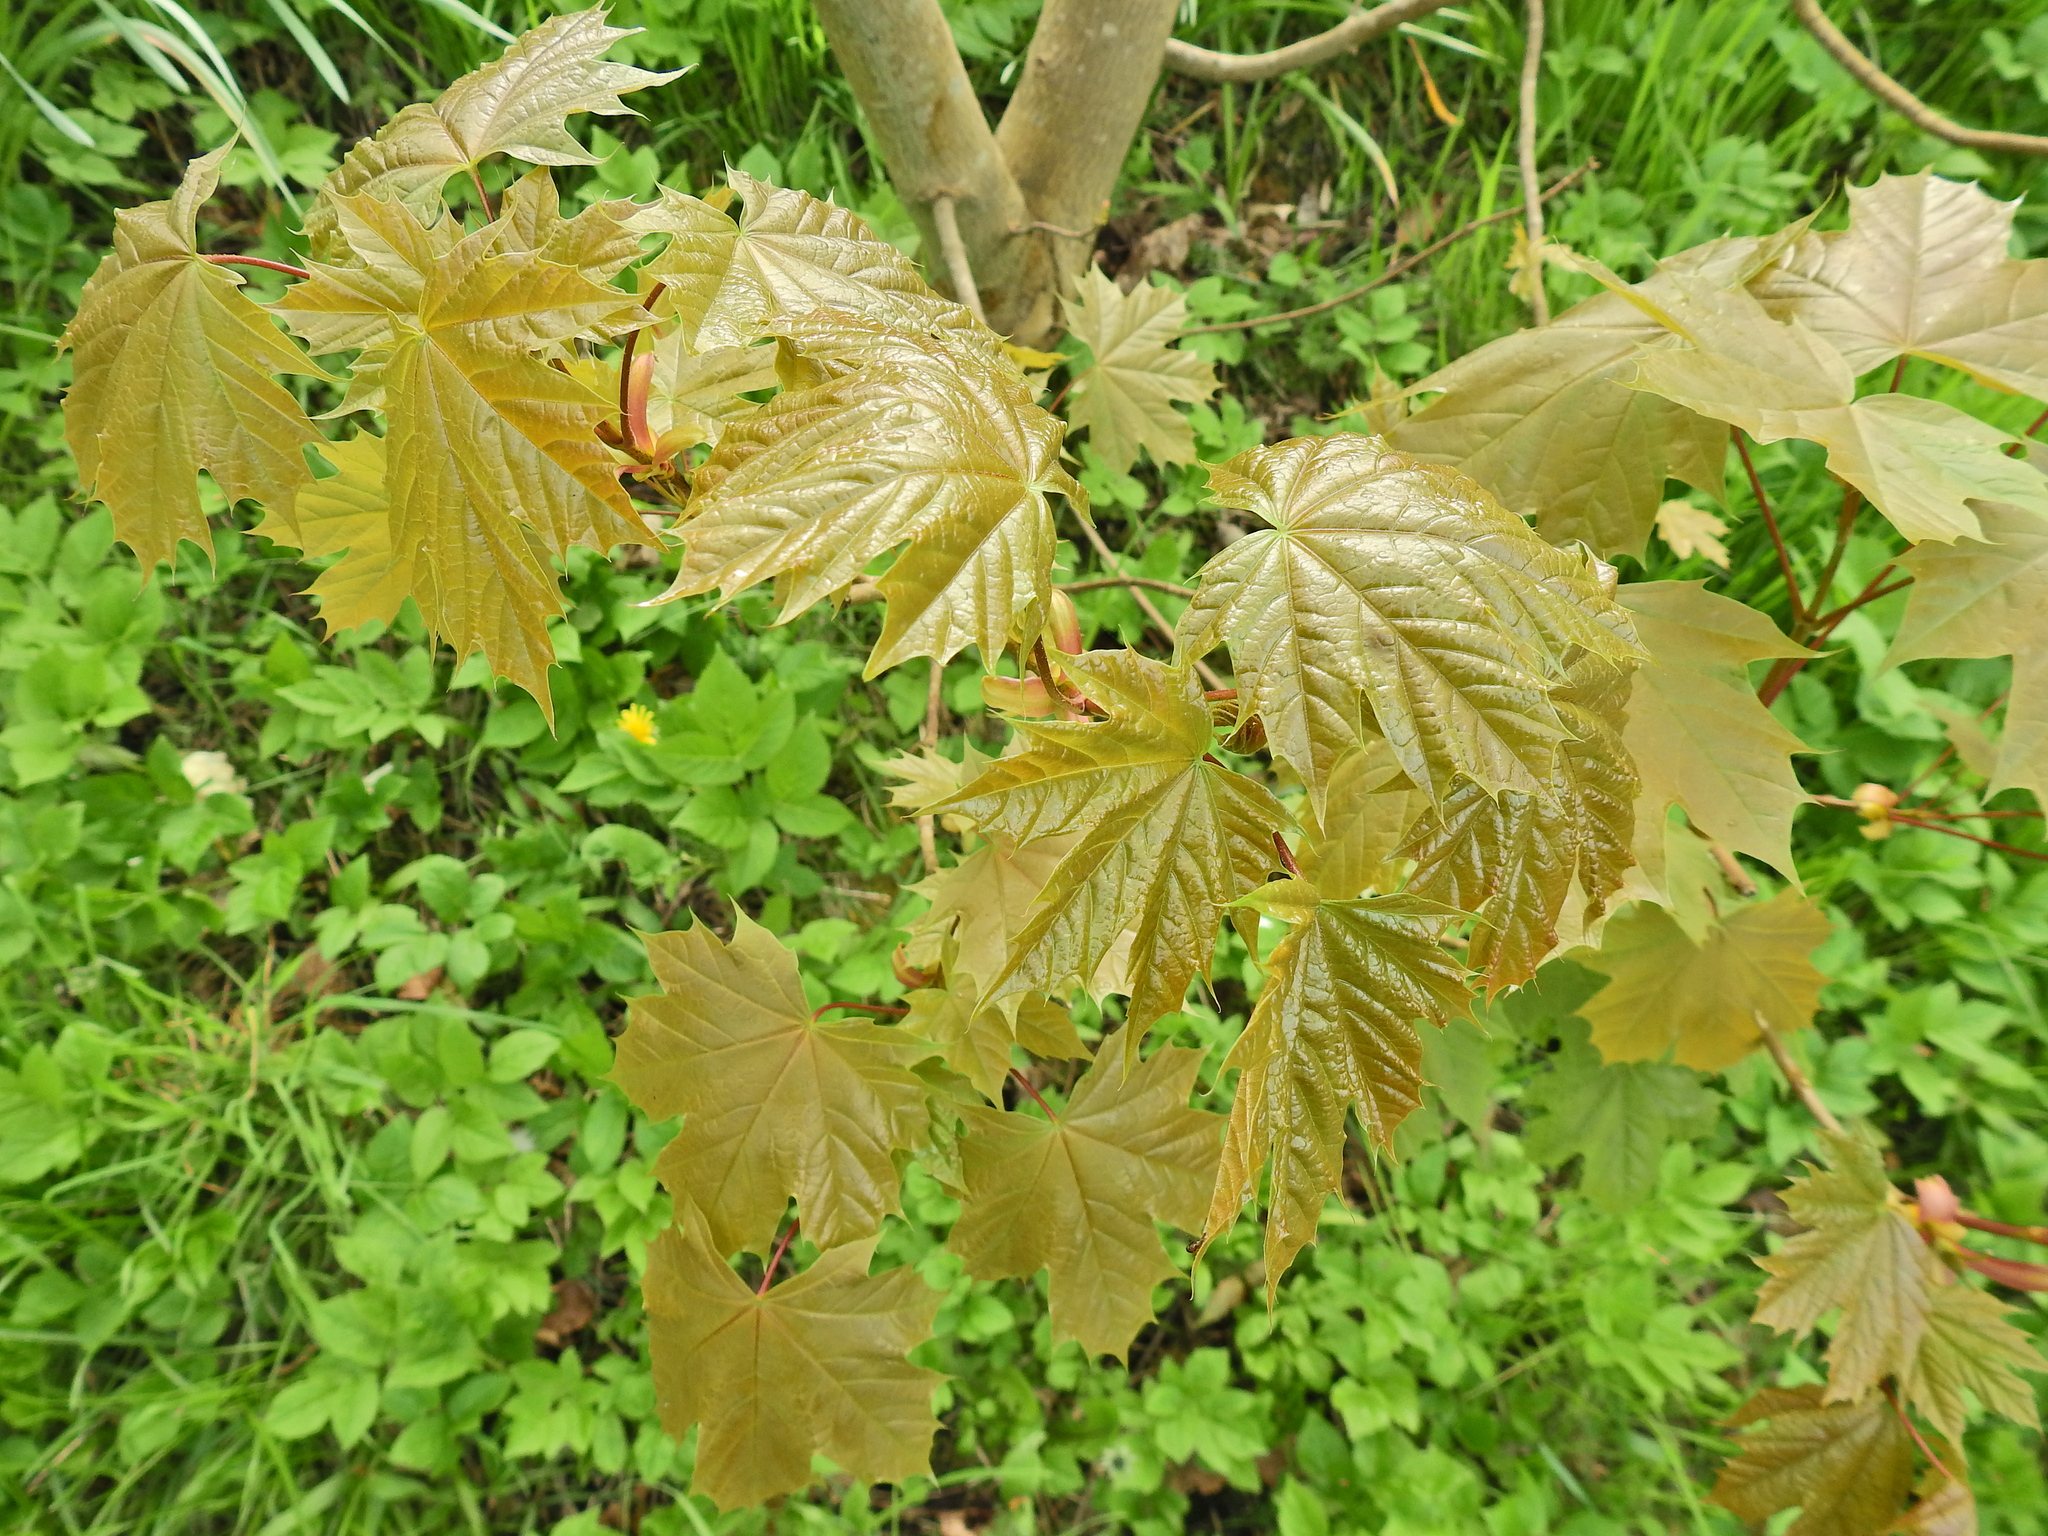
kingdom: Plantae
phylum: Tracheophyta
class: Magnoliopsida
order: Sapindales
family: Sapindaceae
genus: Acer
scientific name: Acer platanoides
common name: Norway maple
